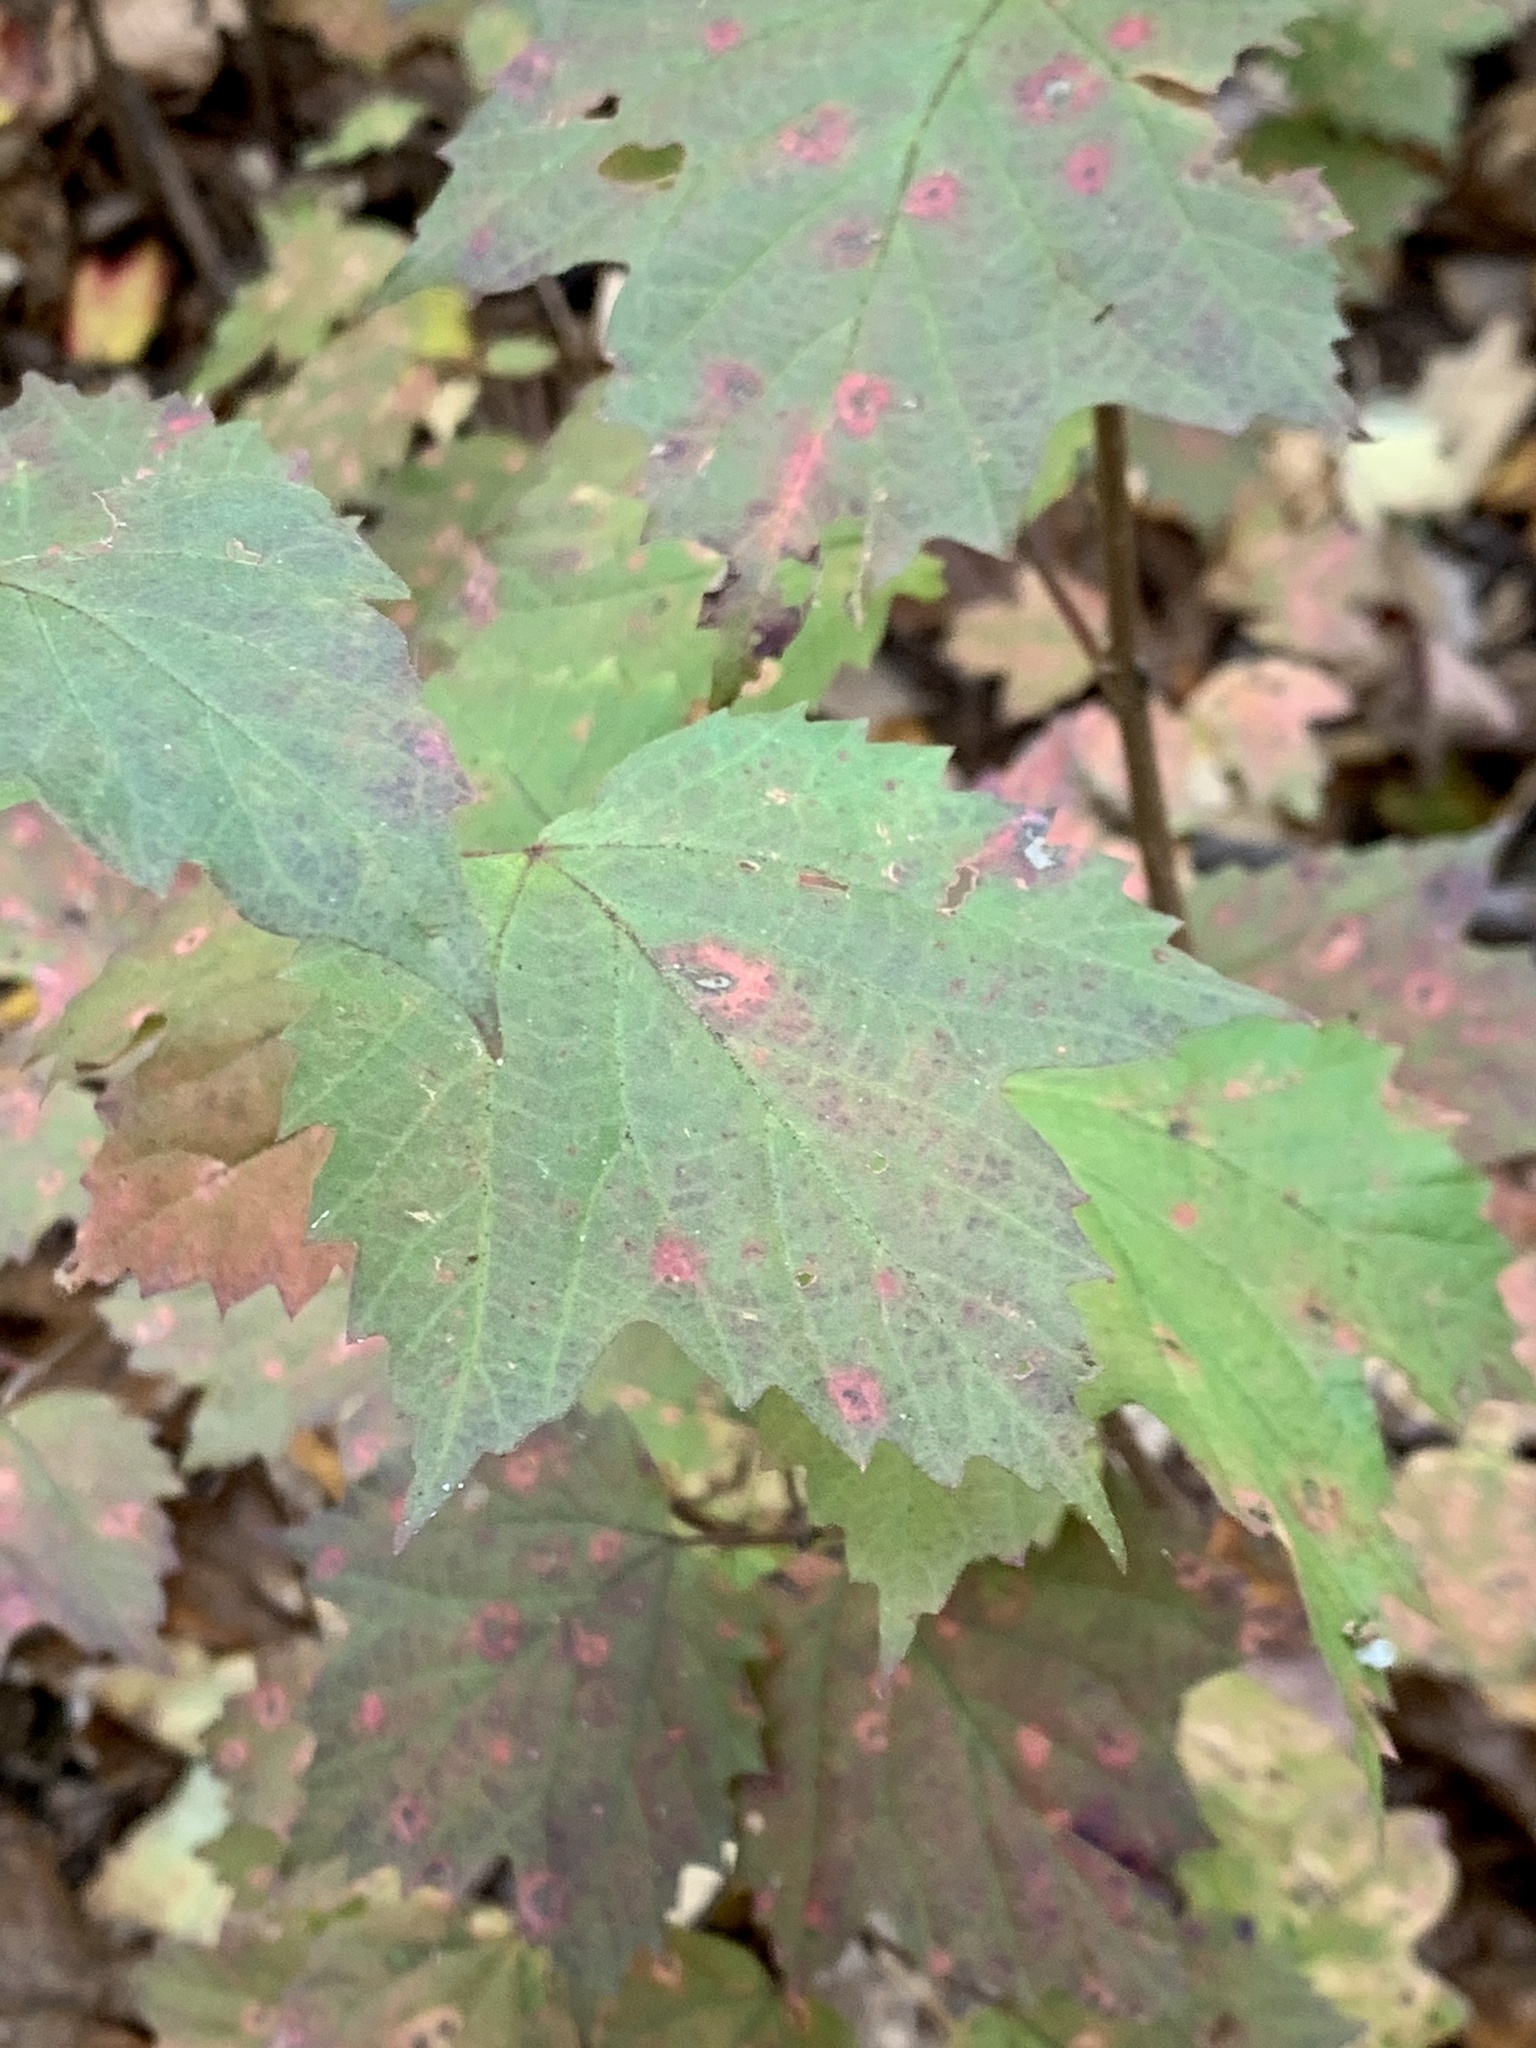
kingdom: Plantae
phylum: Tracheophyta
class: Magnoliopsida
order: Dipsacales
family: Viburnaceae
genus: Viburnum
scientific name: Viburnum acerifolium
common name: Dockmackie
